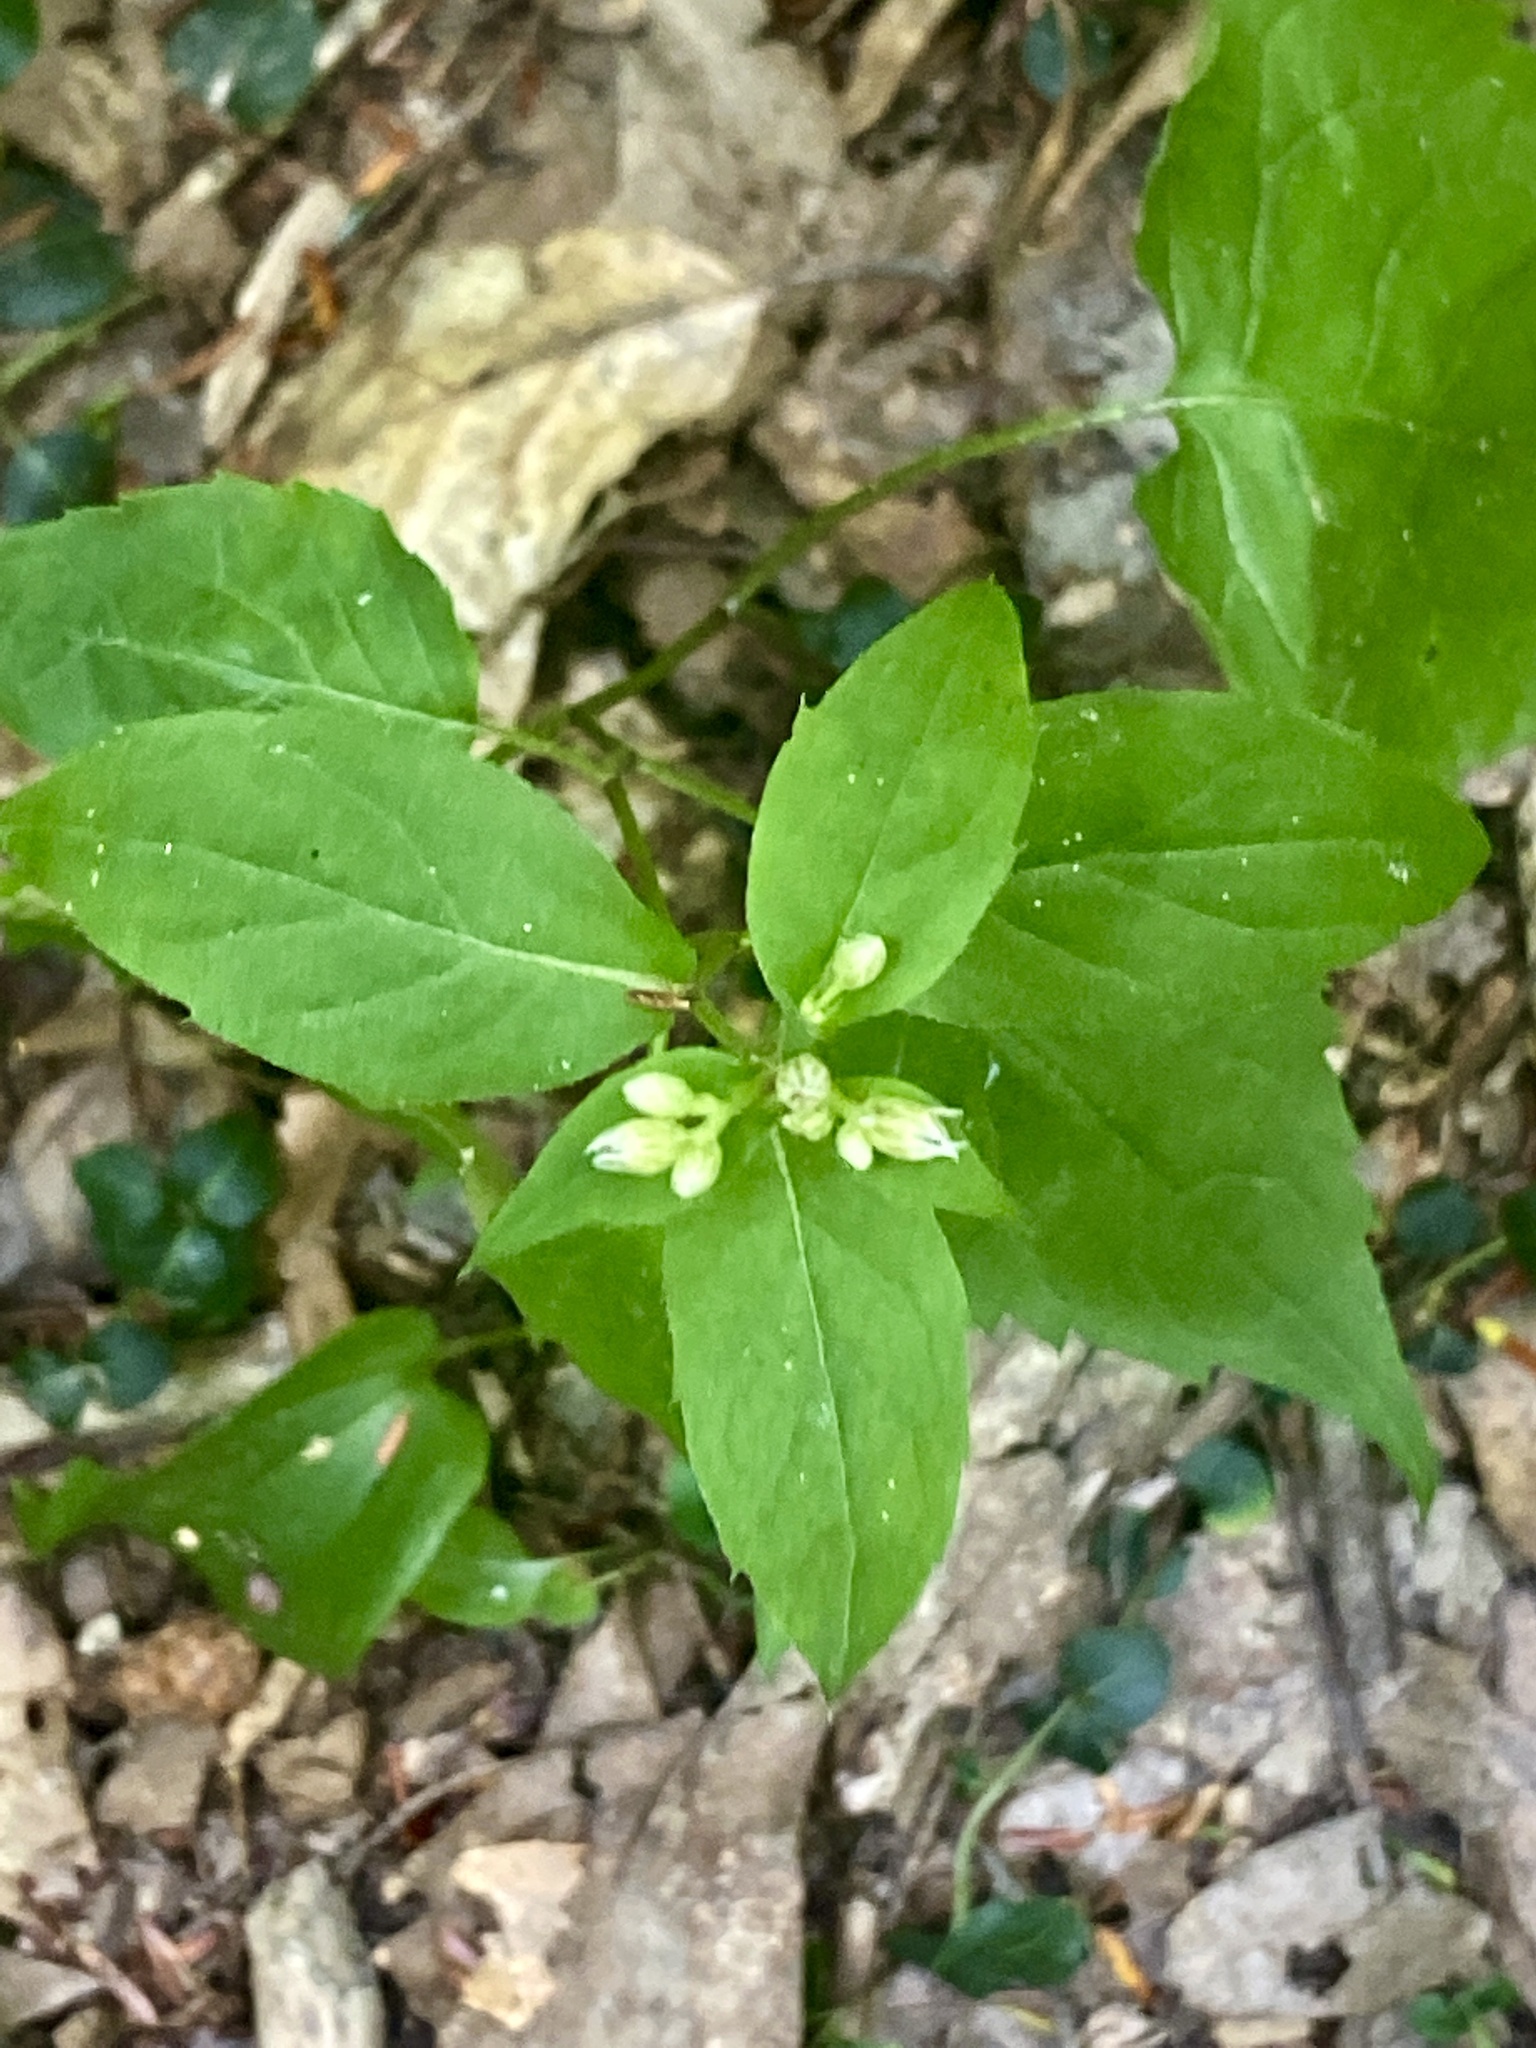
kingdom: Plantae
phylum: Tracheophyta
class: Magnoliopsida
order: Asterales
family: Asteraceae
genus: Eurybia
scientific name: Eurybia divaricata
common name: White wood aster
